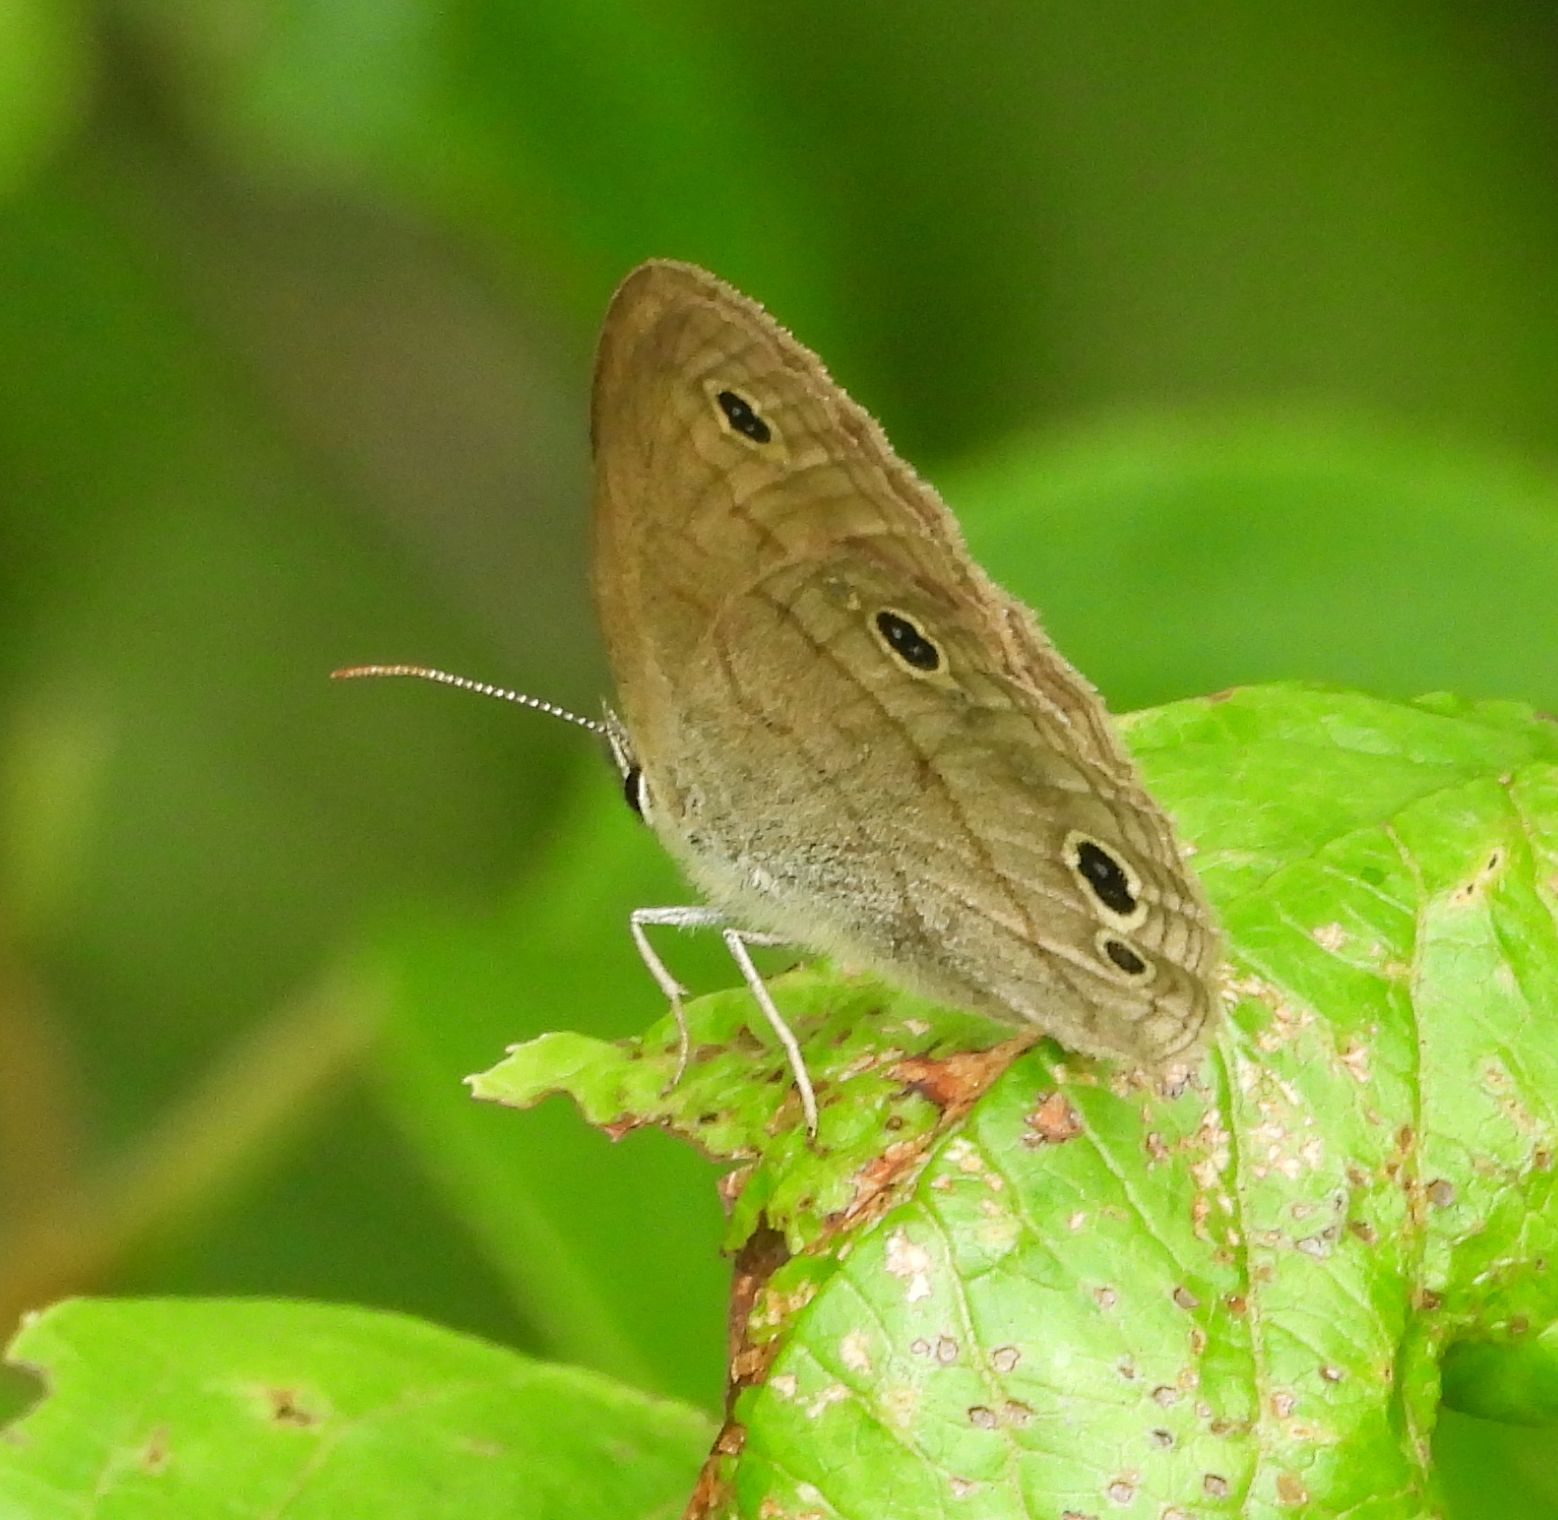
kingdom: Animalia
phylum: Arthropoda
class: Insecta
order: Lepidoptera
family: Nymphalidae
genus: Euptychia
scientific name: Euptychia cymela
